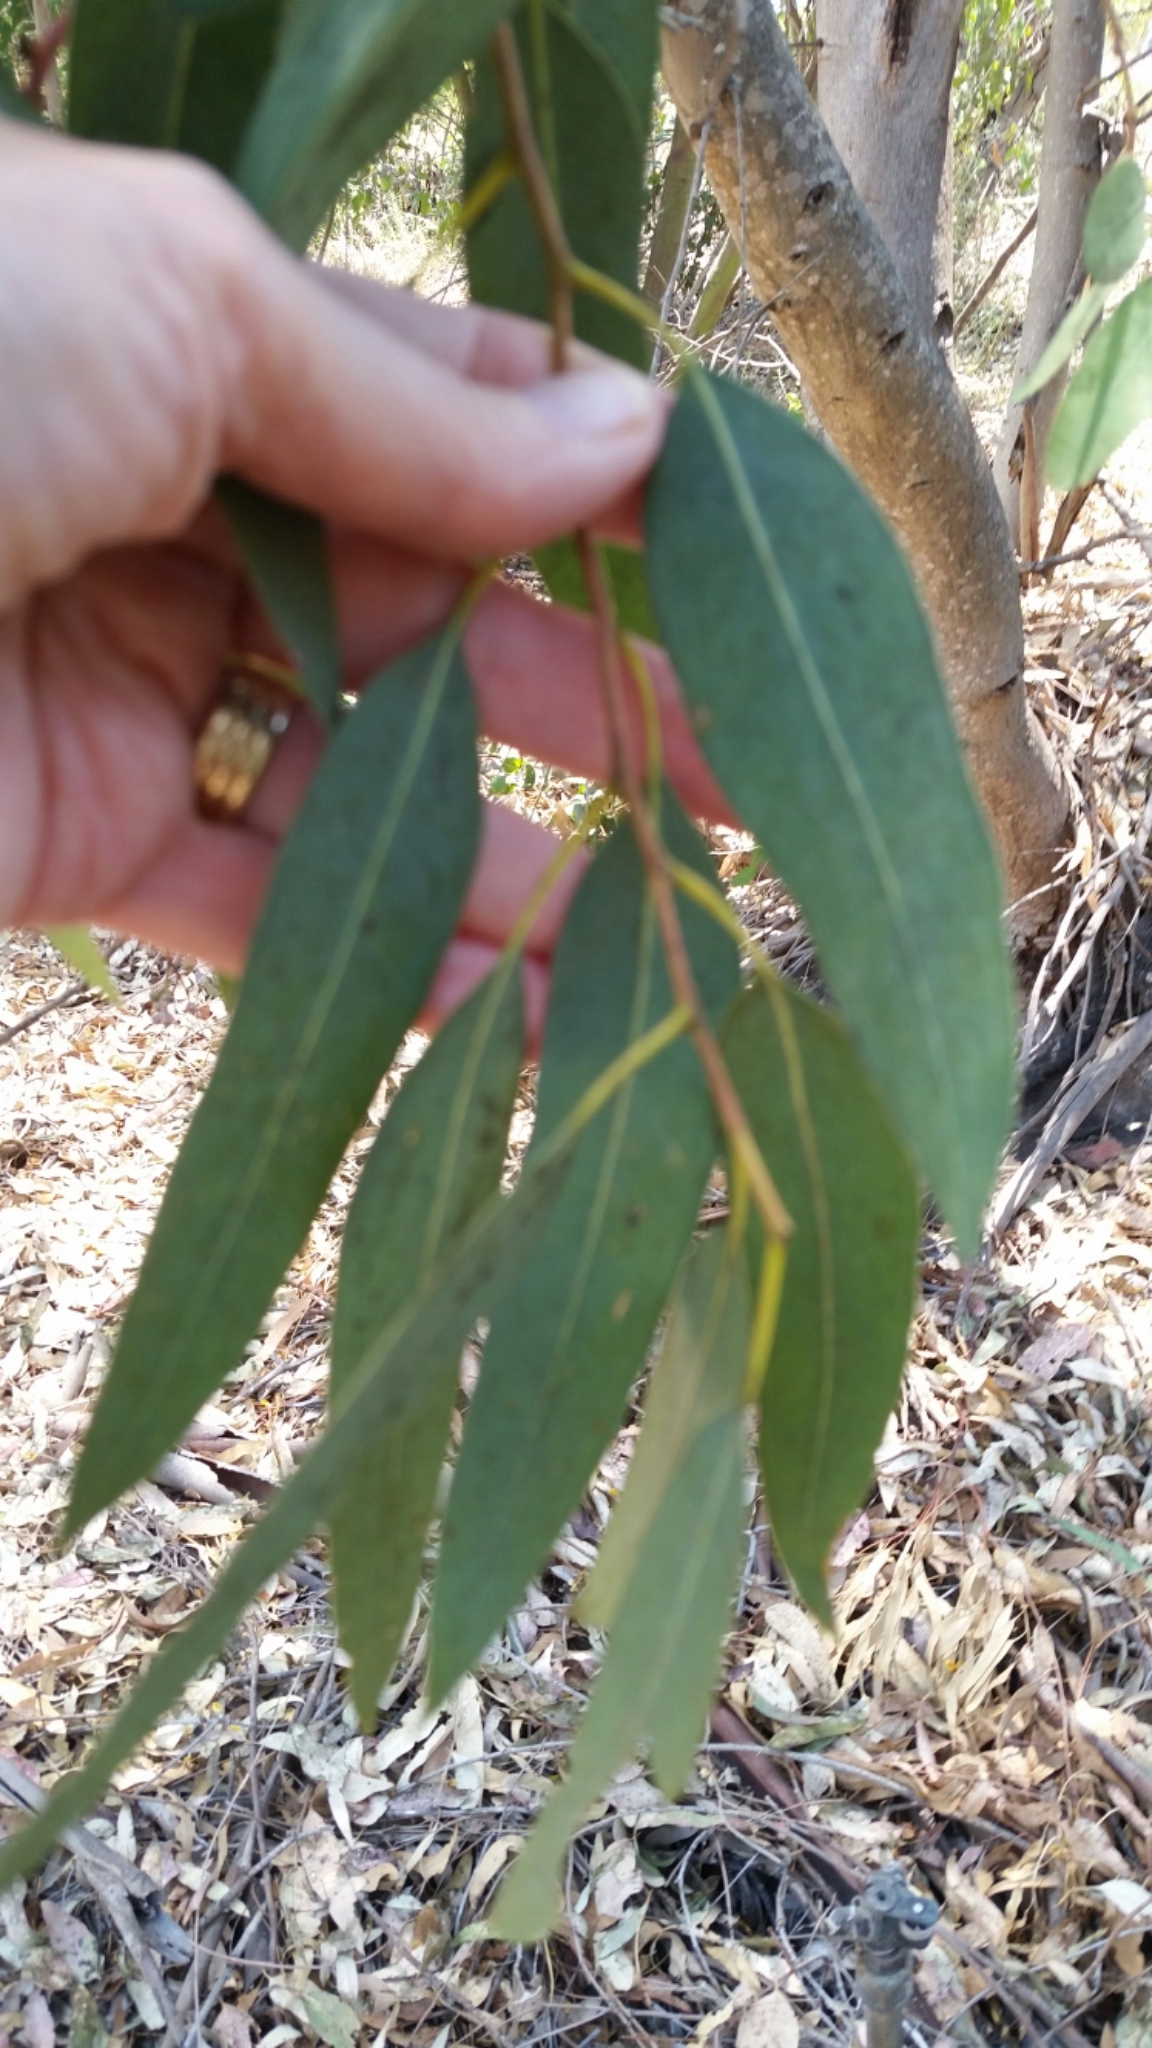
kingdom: Plantae
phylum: Tracheophyta
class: Magnoliopsida
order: Myrtales
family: Myrtaceae
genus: Eucalyptus
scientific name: Eucalyptus camaldulensis
